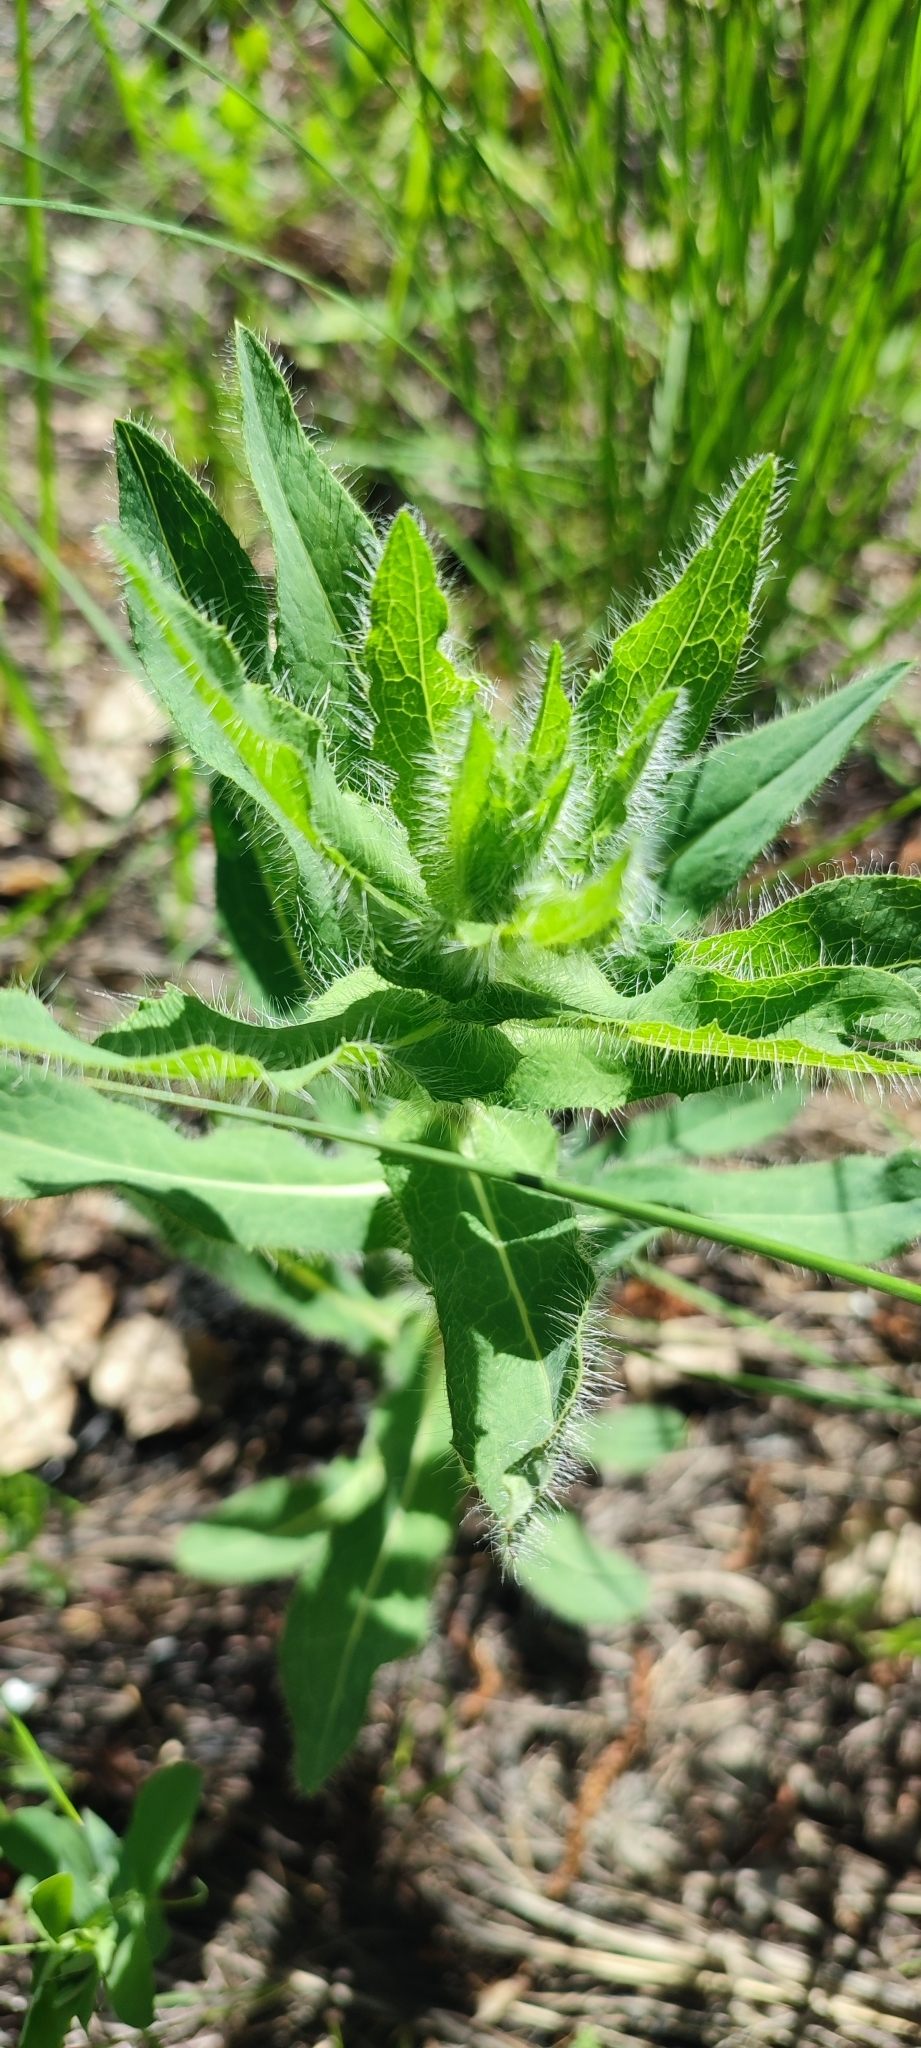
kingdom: Plantae
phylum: Tracheophyta
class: Magnoliopsida
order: Asterales
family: Asteraceae
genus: Hieracium
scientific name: Hieracium robustum
